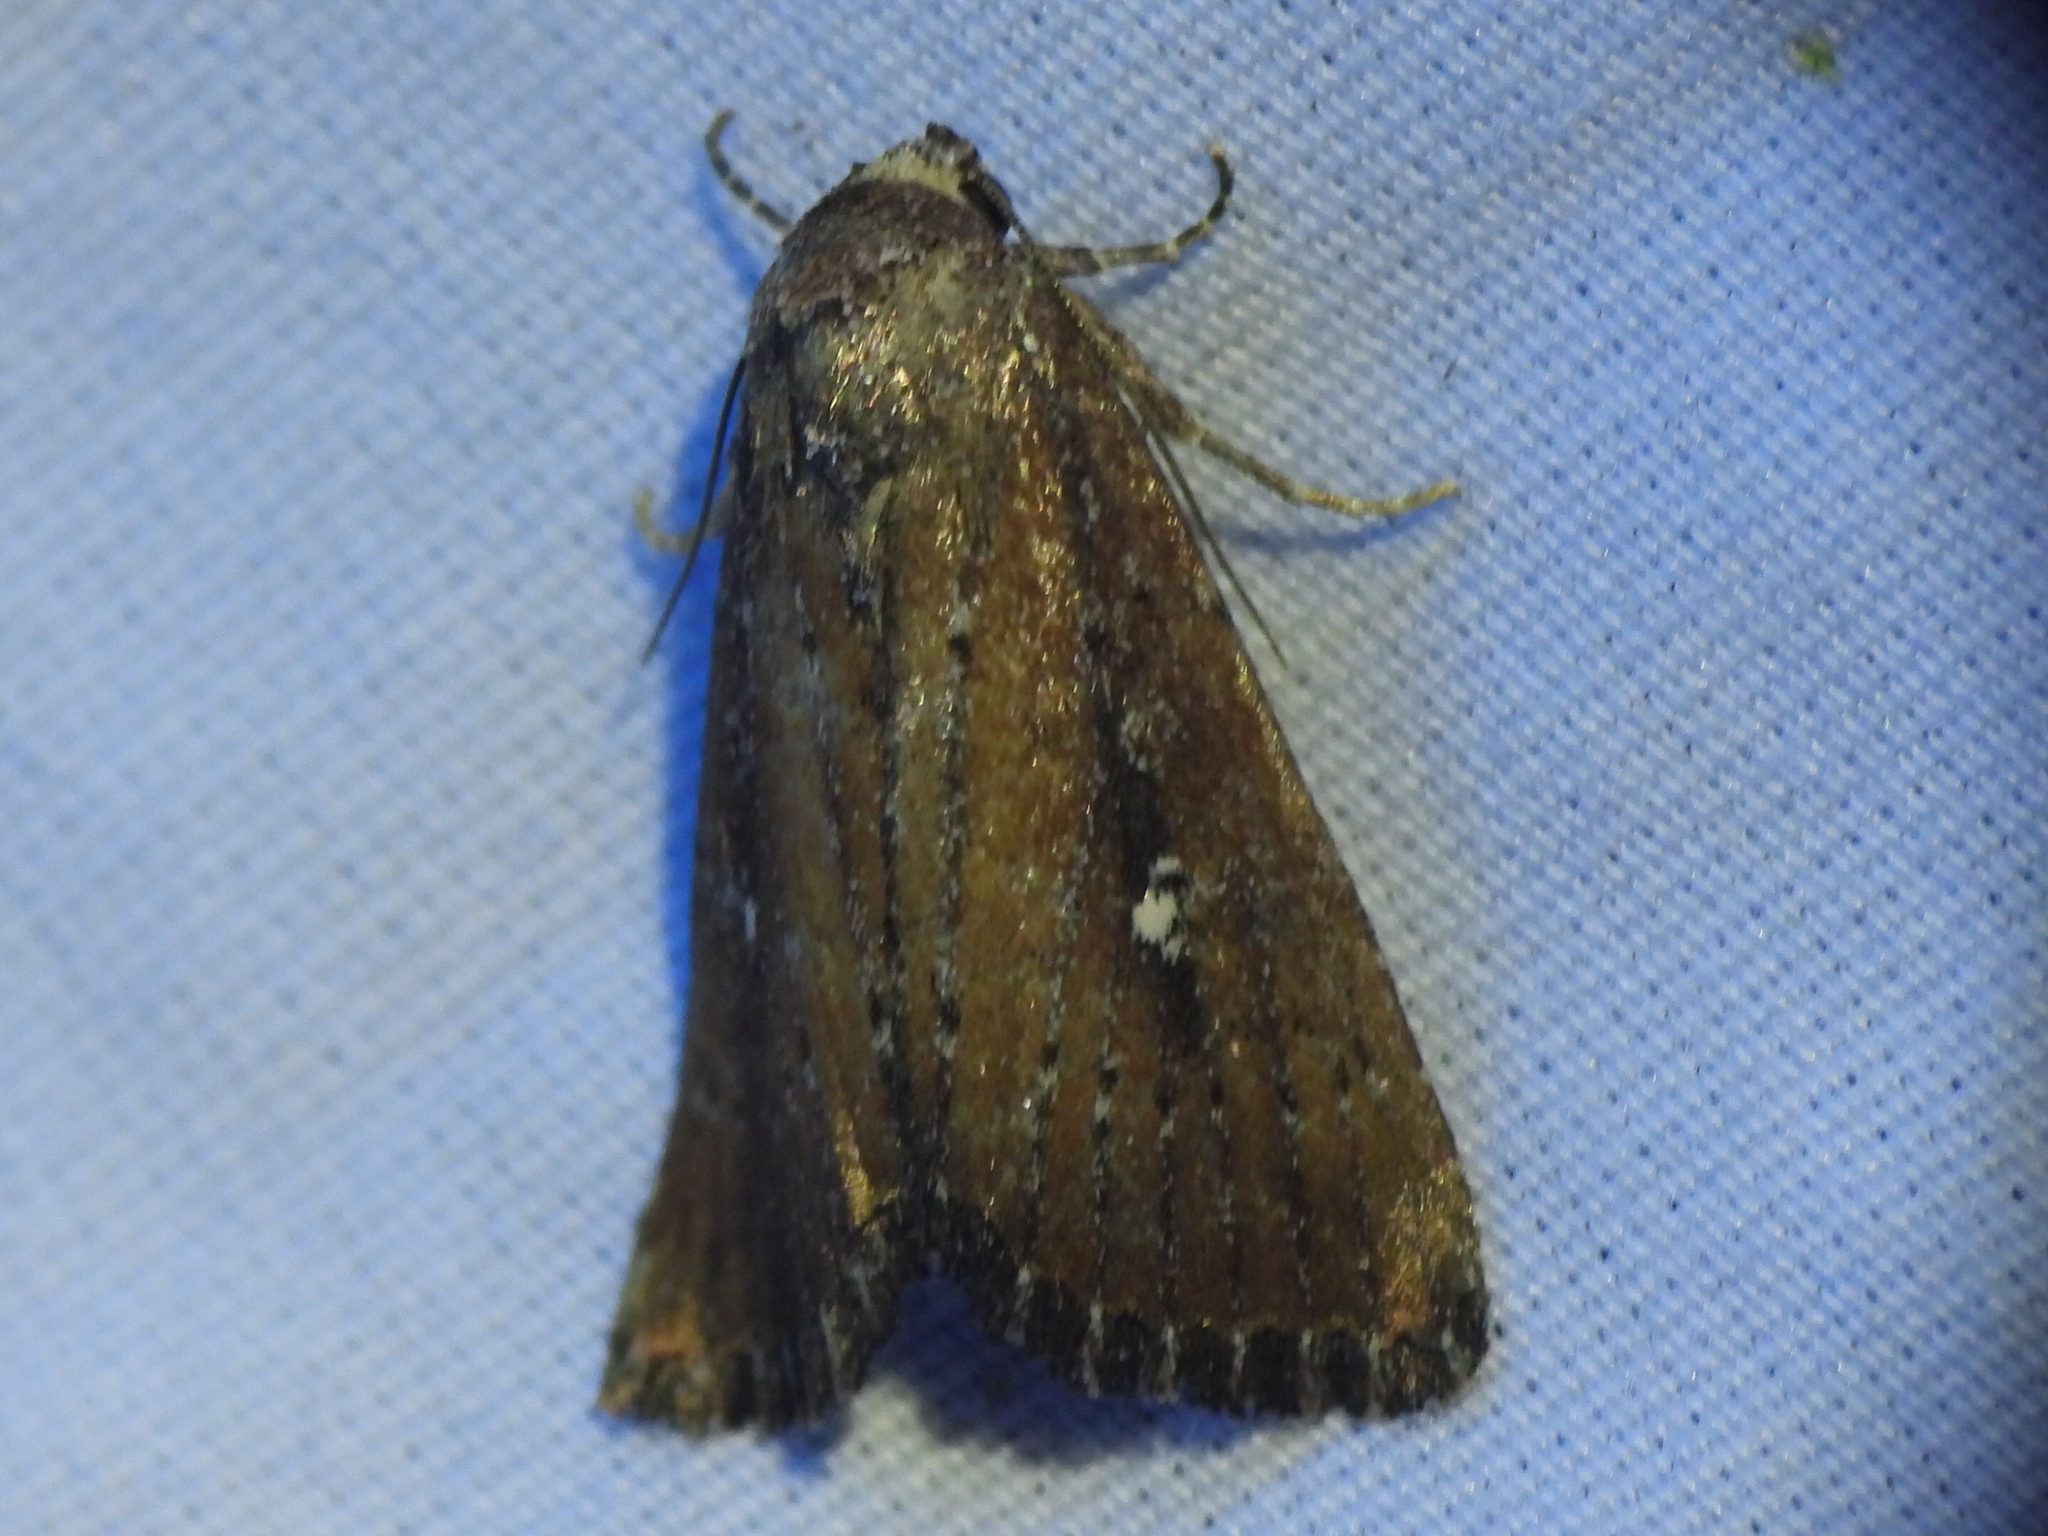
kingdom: Animalia
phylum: Arthropoda
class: Insecta
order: Lepidoptera
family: Noctuidae
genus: Condica
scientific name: Condica videns
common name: White-dotted groundling
